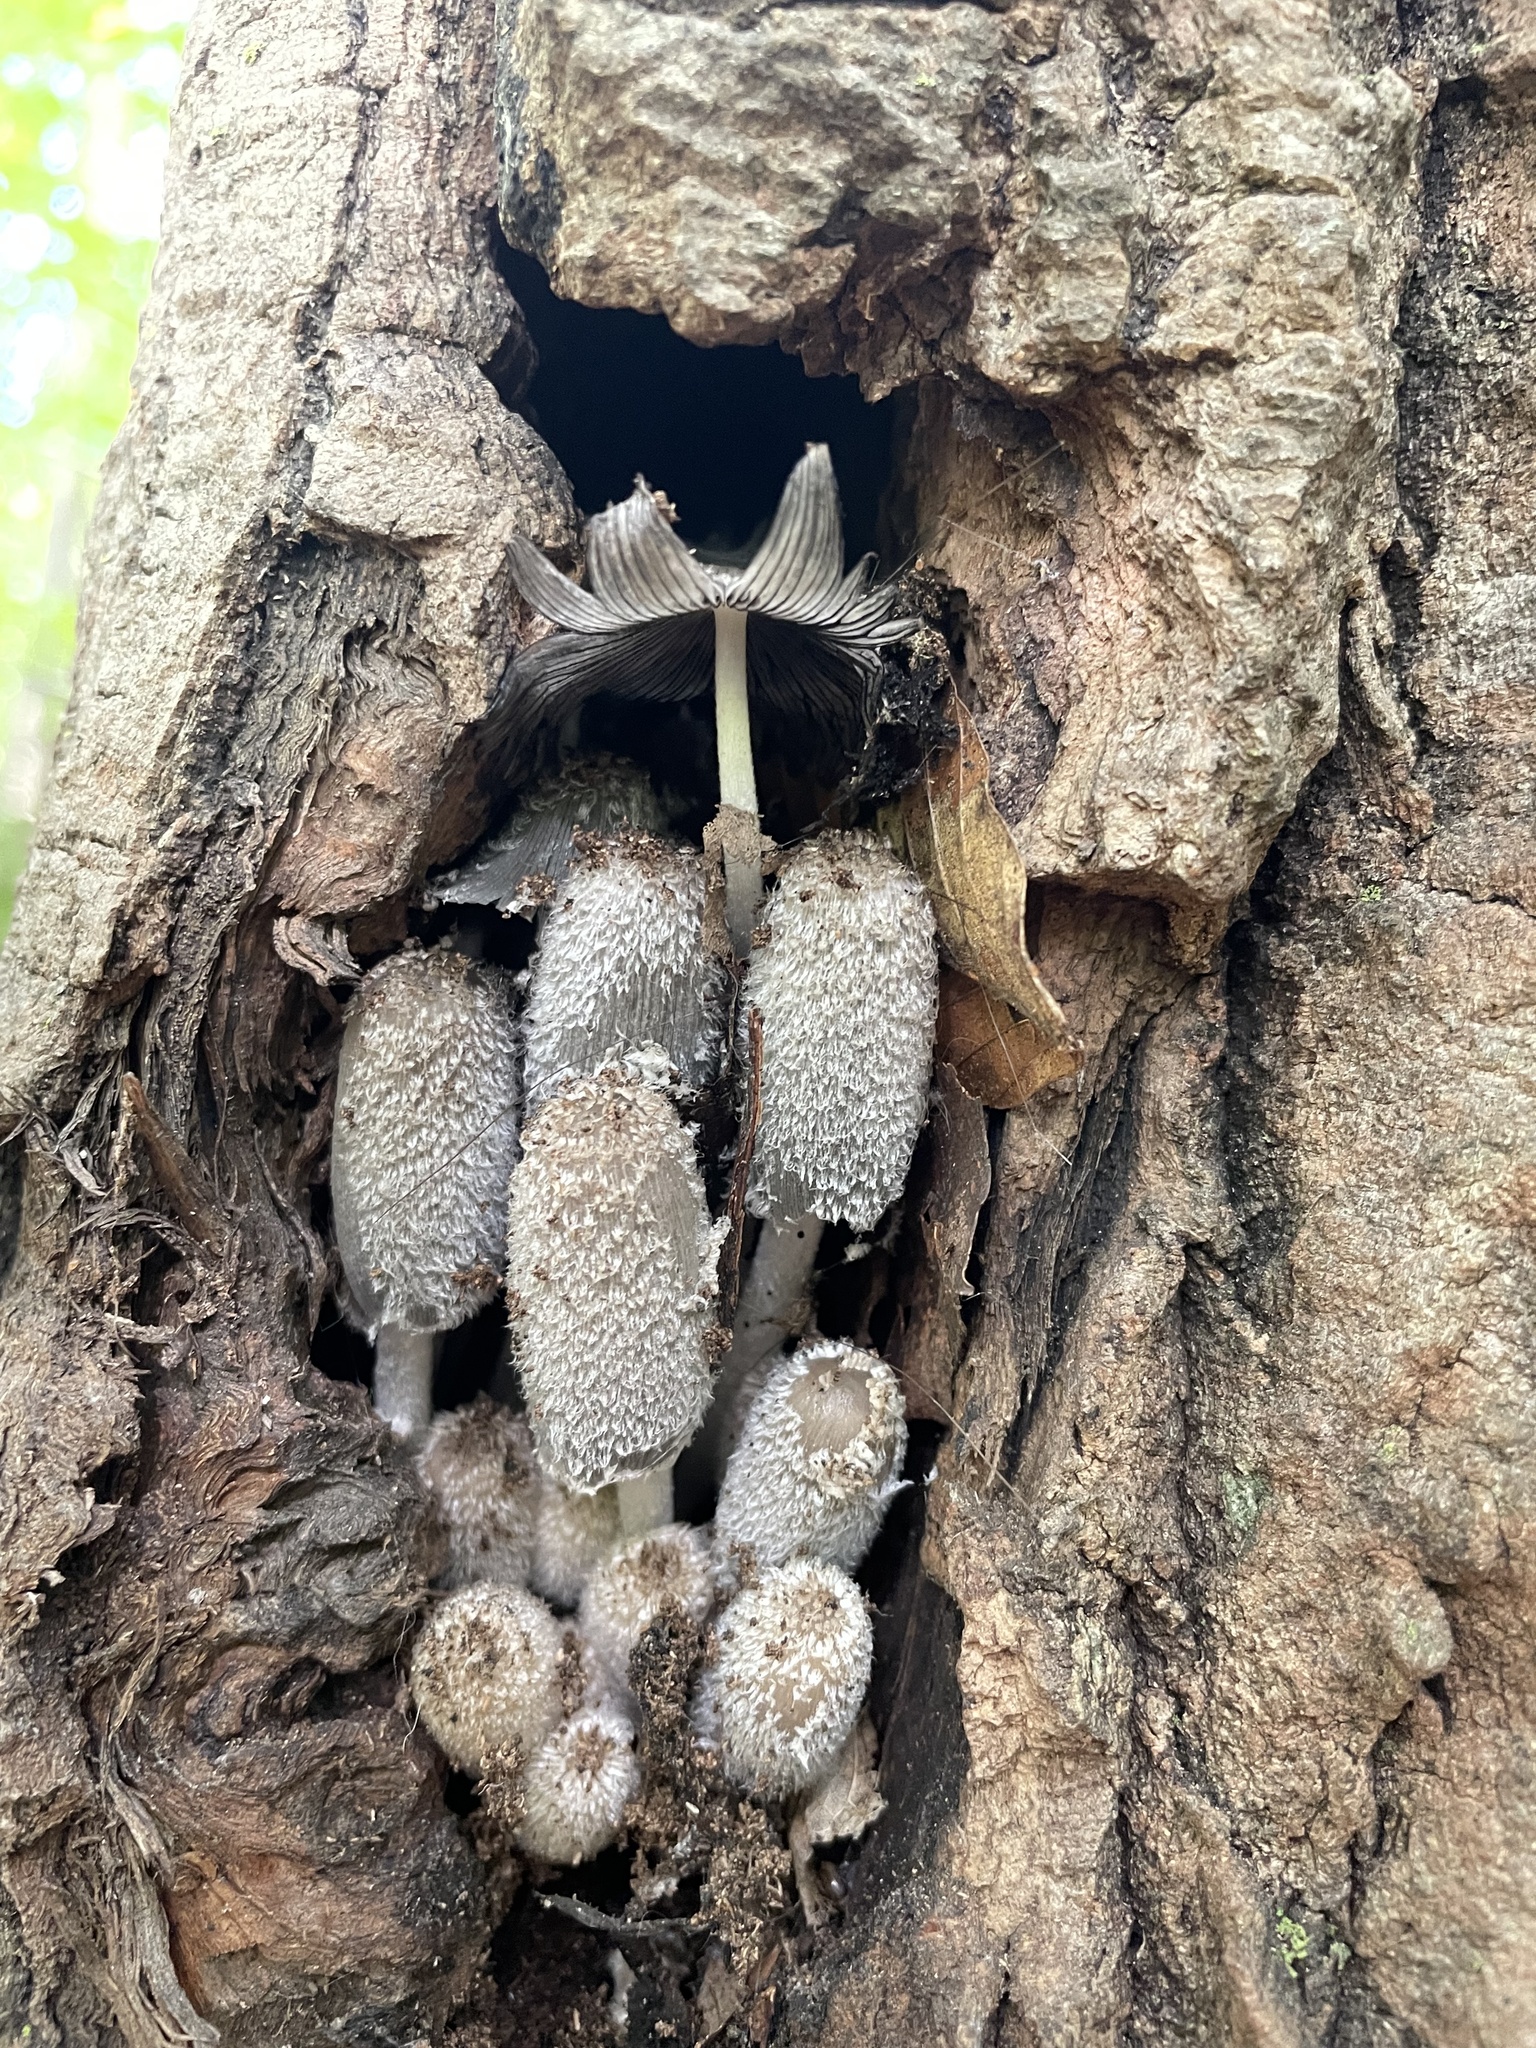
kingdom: Fungi
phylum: Basidiomycota
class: Agaricomycetes
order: Agaricales
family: Psathyrellaceae
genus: Coprinopsis
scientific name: Coprinopsis lagopus
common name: Hare'sfoot inkcap
